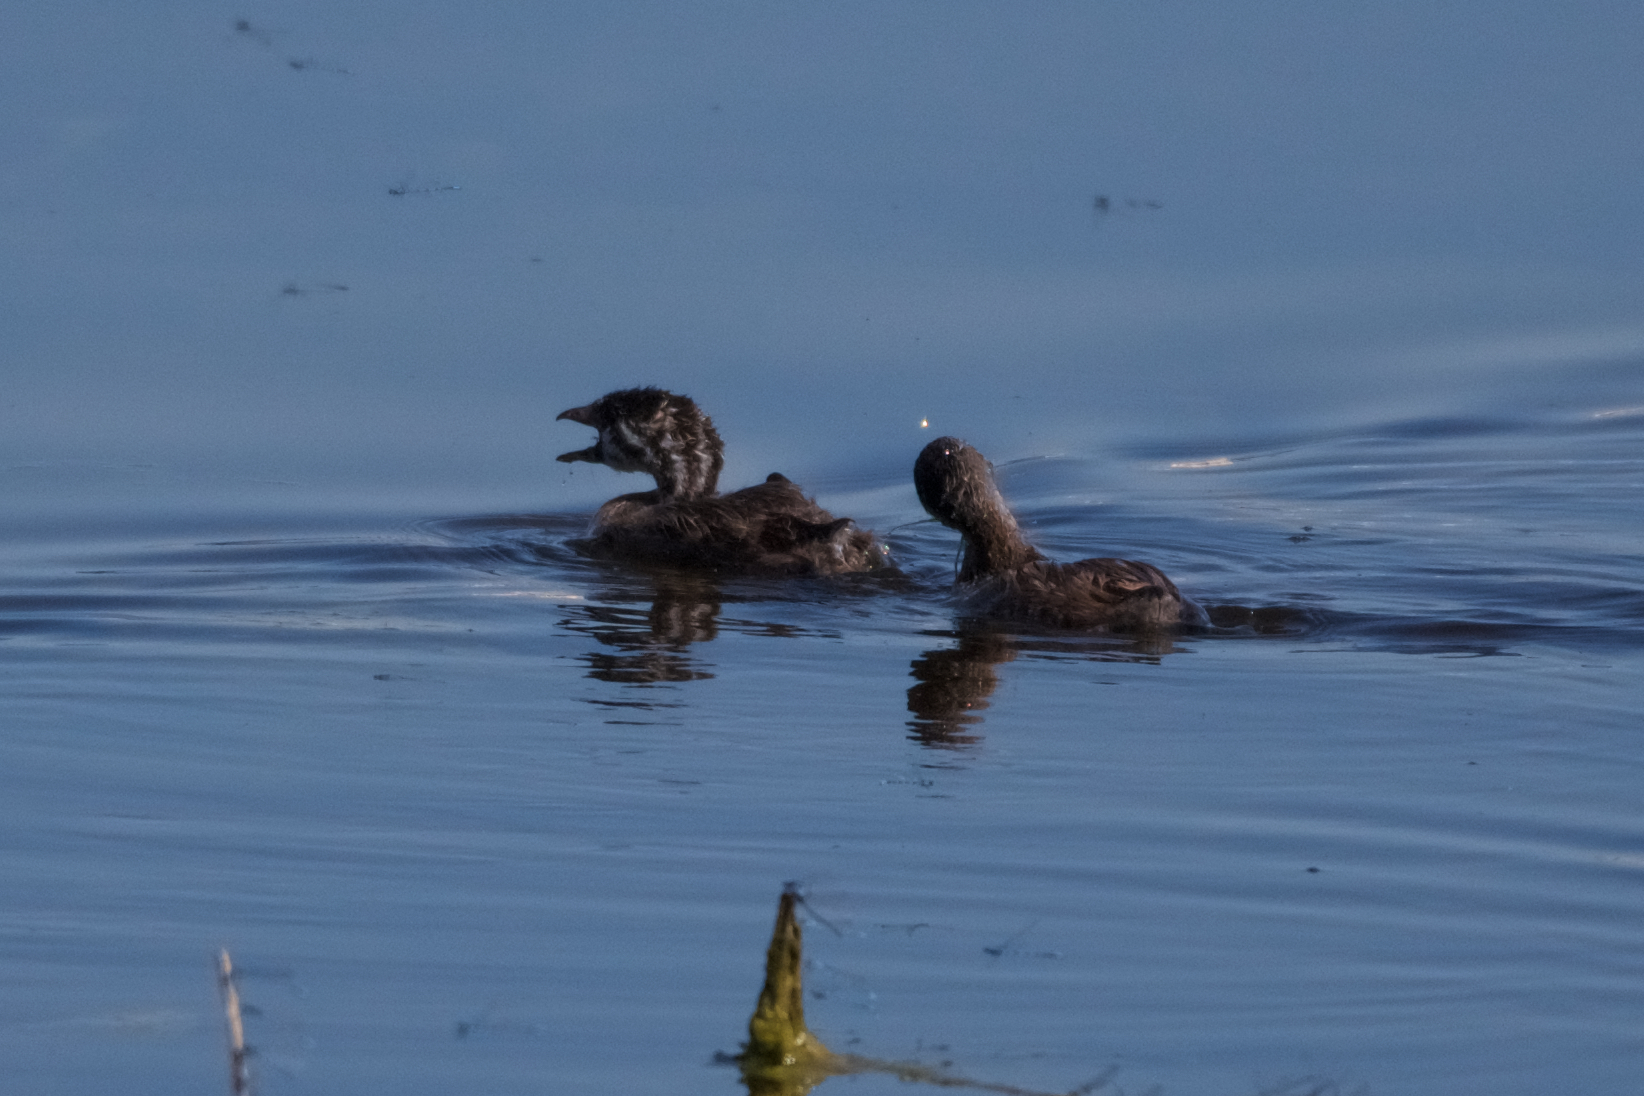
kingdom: Animalia
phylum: Chordata
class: Aves
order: Podicipediformes
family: Podicipedidae
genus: Podilymbus
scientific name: Podilymbus podiceps
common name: Pied-billed grebe
